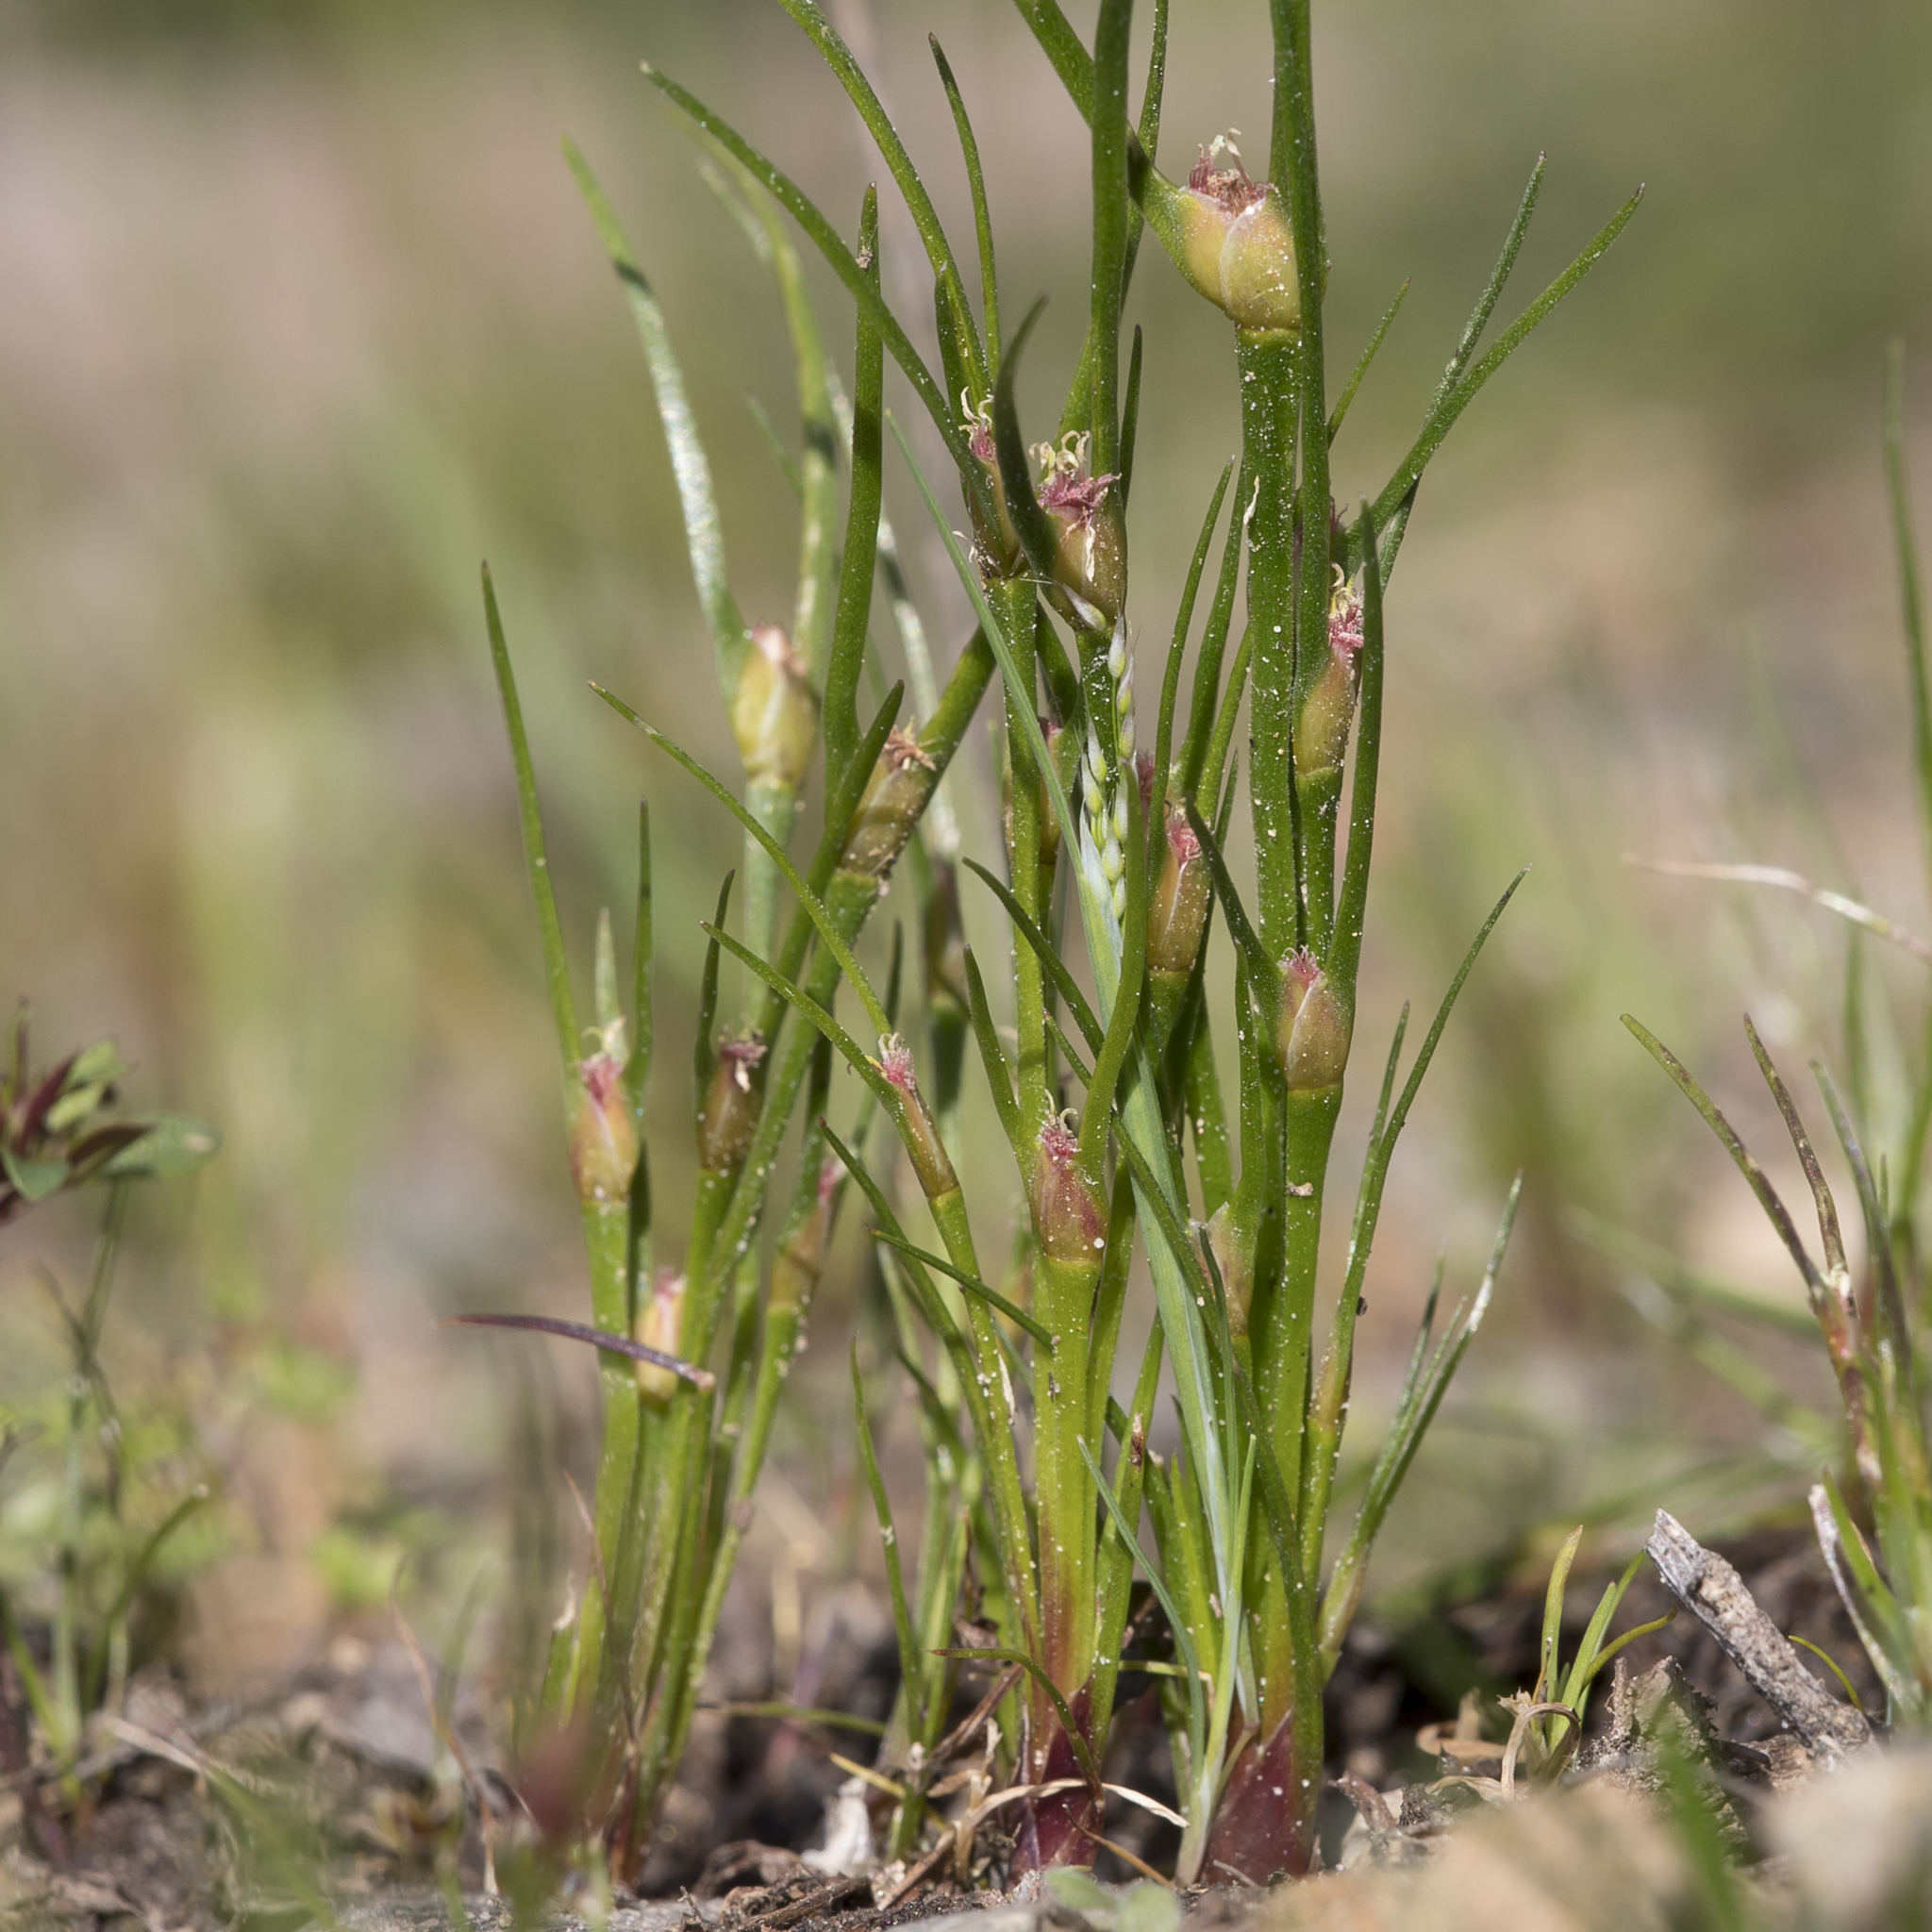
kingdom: Plantae
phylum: Tracheophyta
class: Liliopsida
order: Poales
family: Restionaceae
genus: Centrolepis
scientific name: Centrolepis aristata
